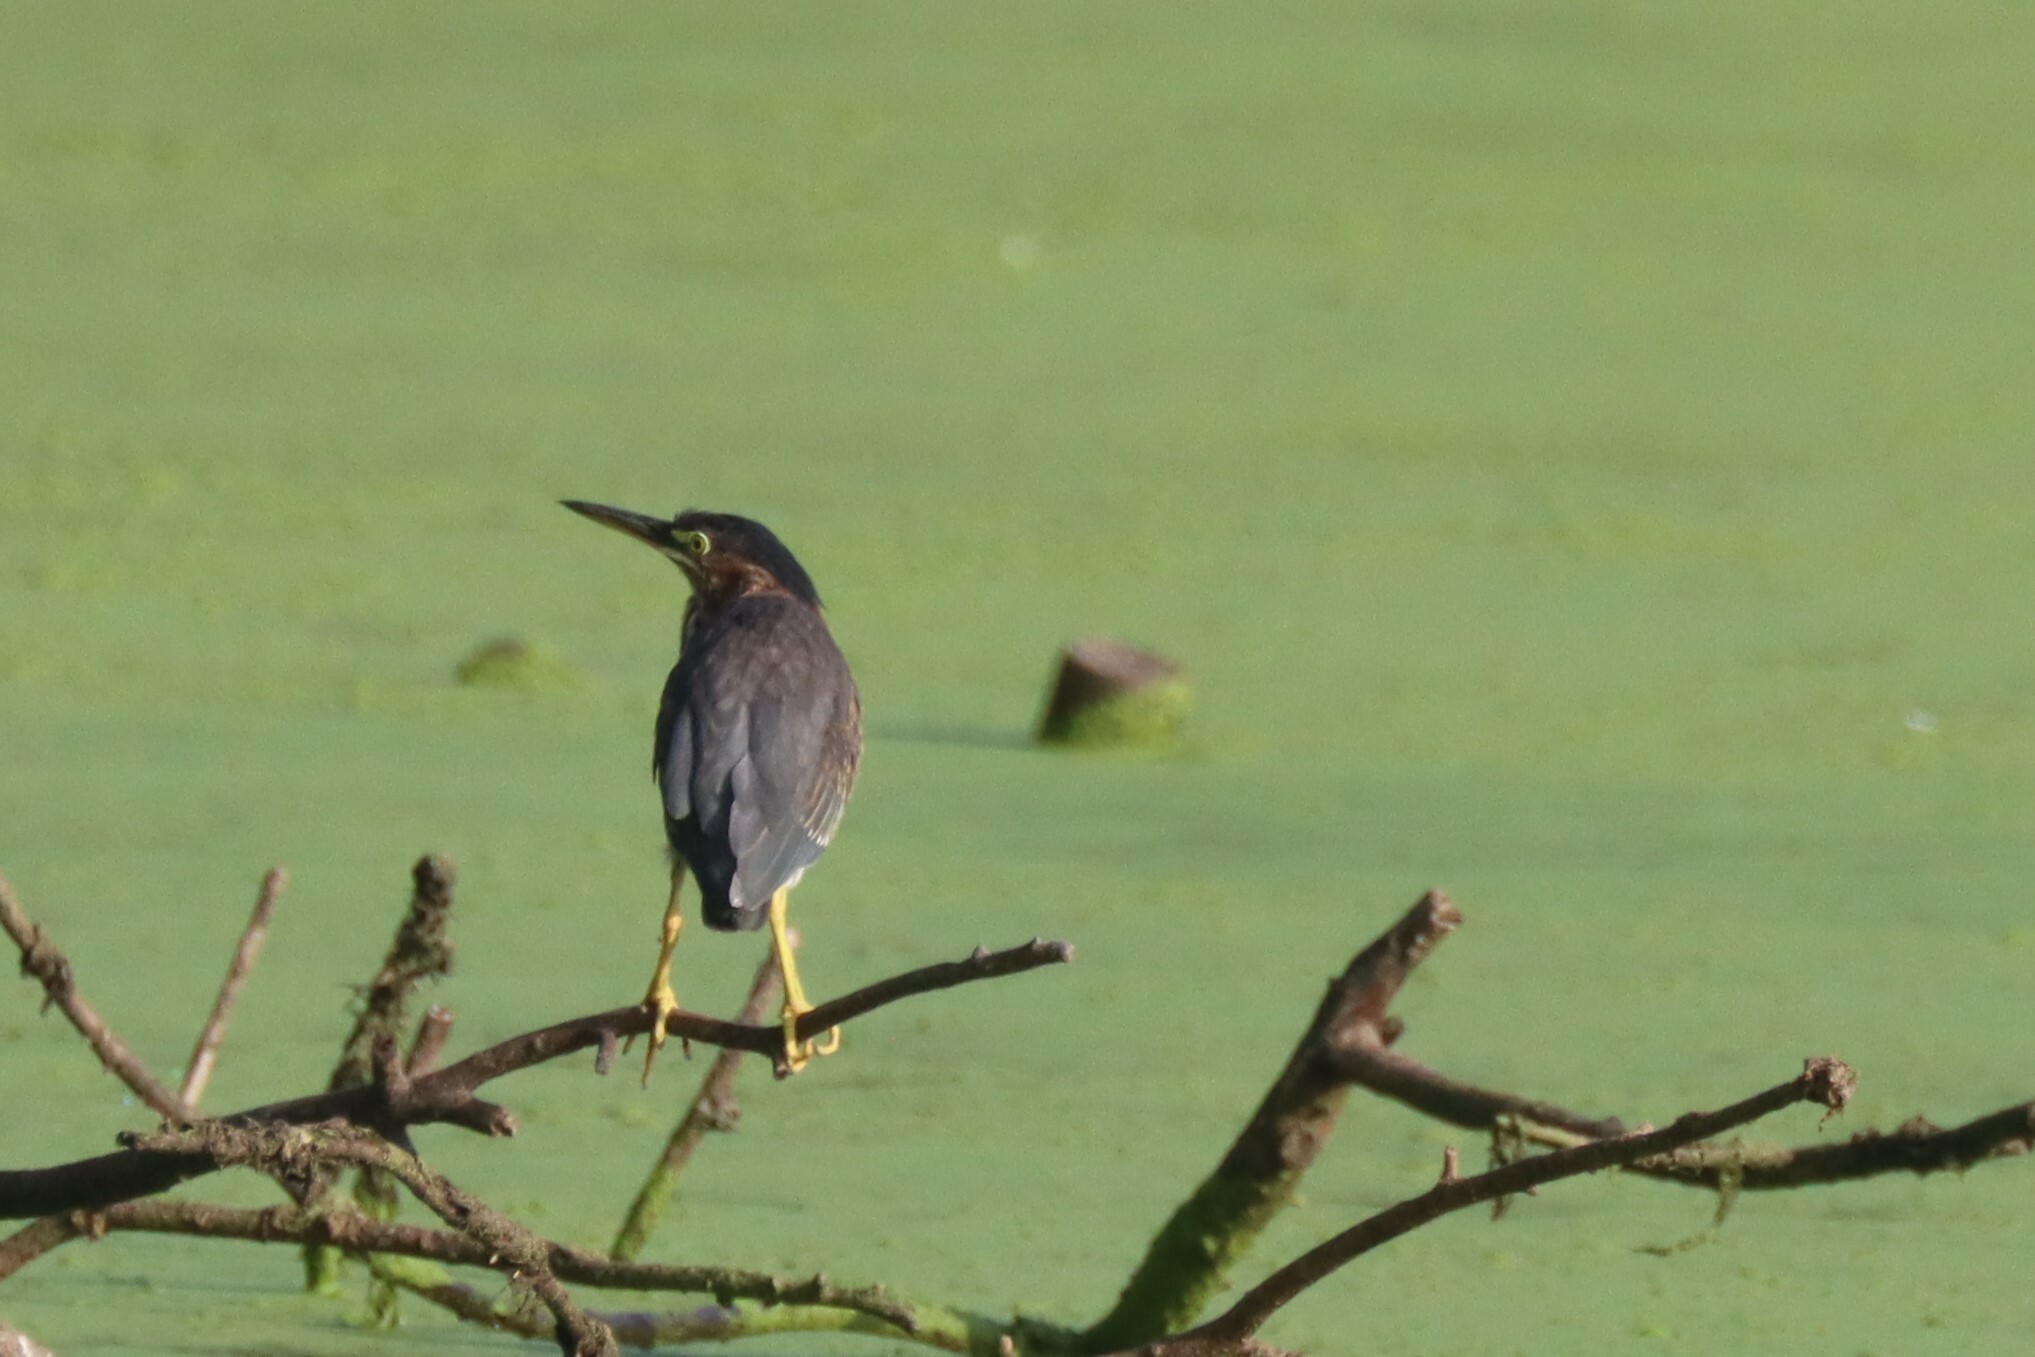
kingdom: Animalia
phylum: Chordata
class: Aves
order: Pelecaniformes
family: Ardeidae
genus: Butorides
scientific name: Butorides virescens
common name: Green heron
